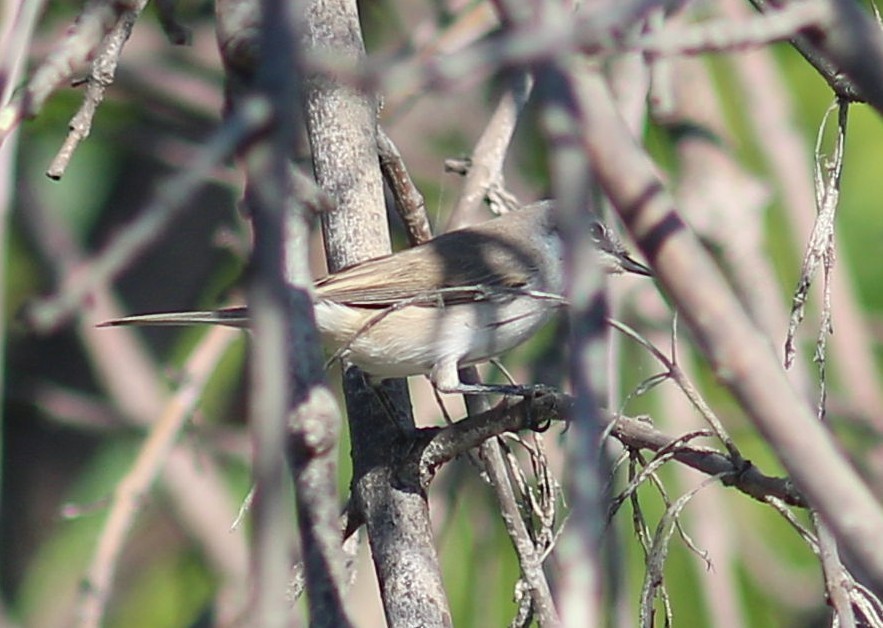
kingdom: Animalia
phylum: Chordata
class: Aves
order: Passeriformes
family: Sylviidae
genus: Sylvia
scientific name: Sylvia curruca
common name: Lesser whitethroat
